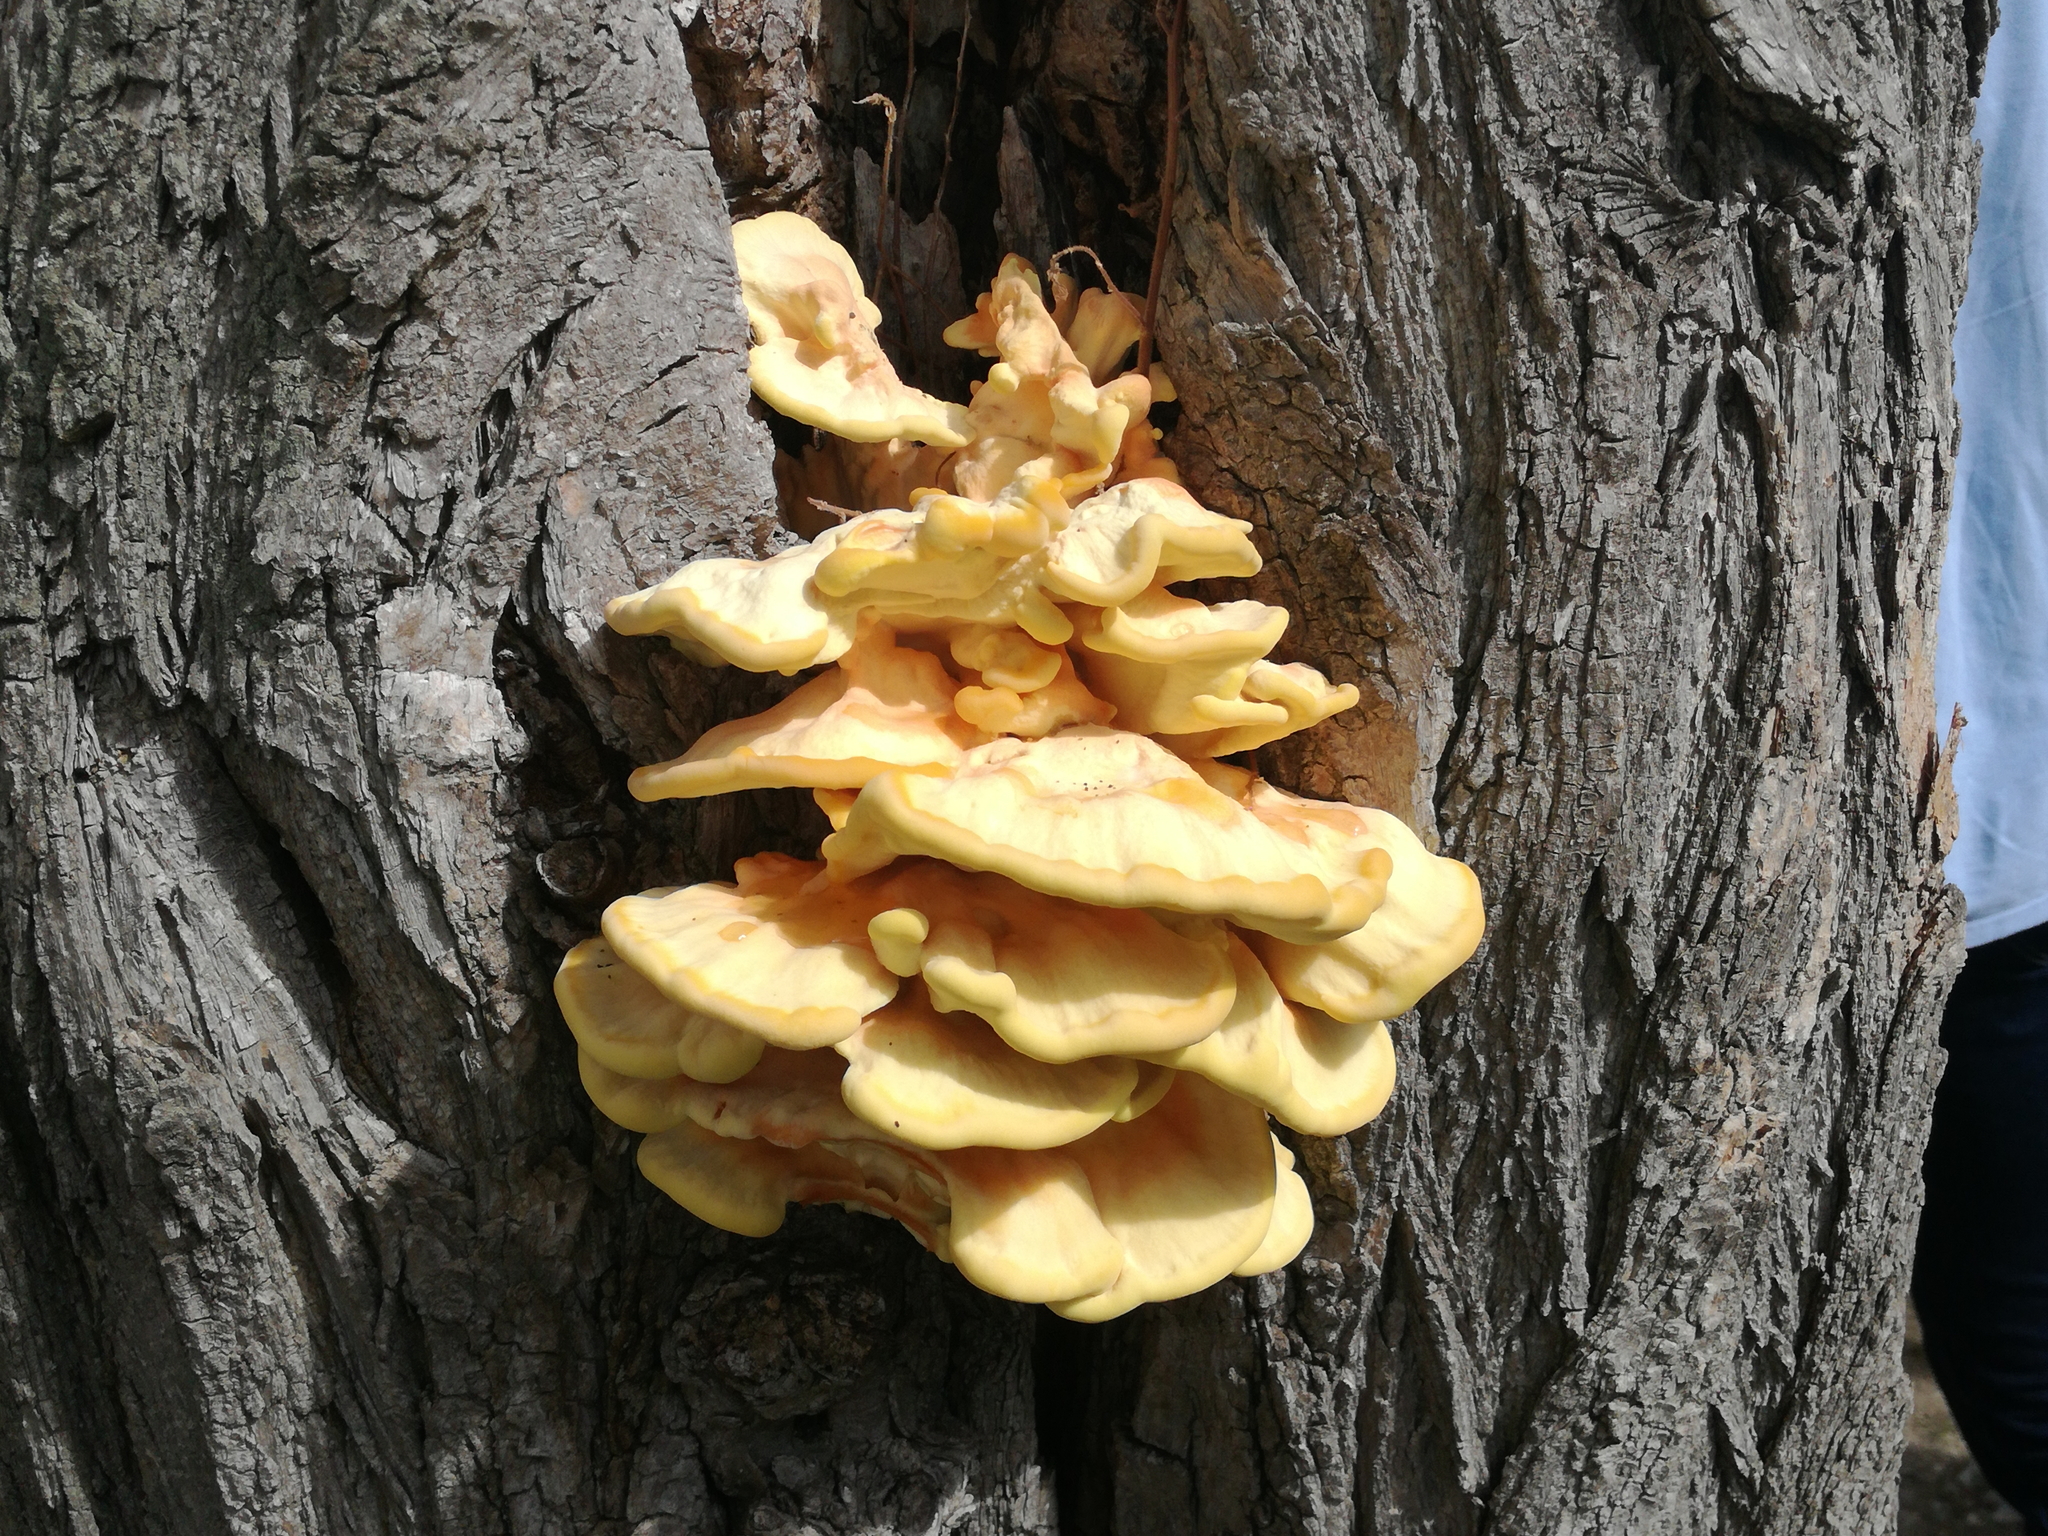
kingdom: Fungi
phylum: Basidiomycota
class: Agaricomycetes
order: Polyporales
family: Laetiporaceae
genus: Laetiporus
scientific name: Laetiporus sulphureus
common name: Chicken of the woods
